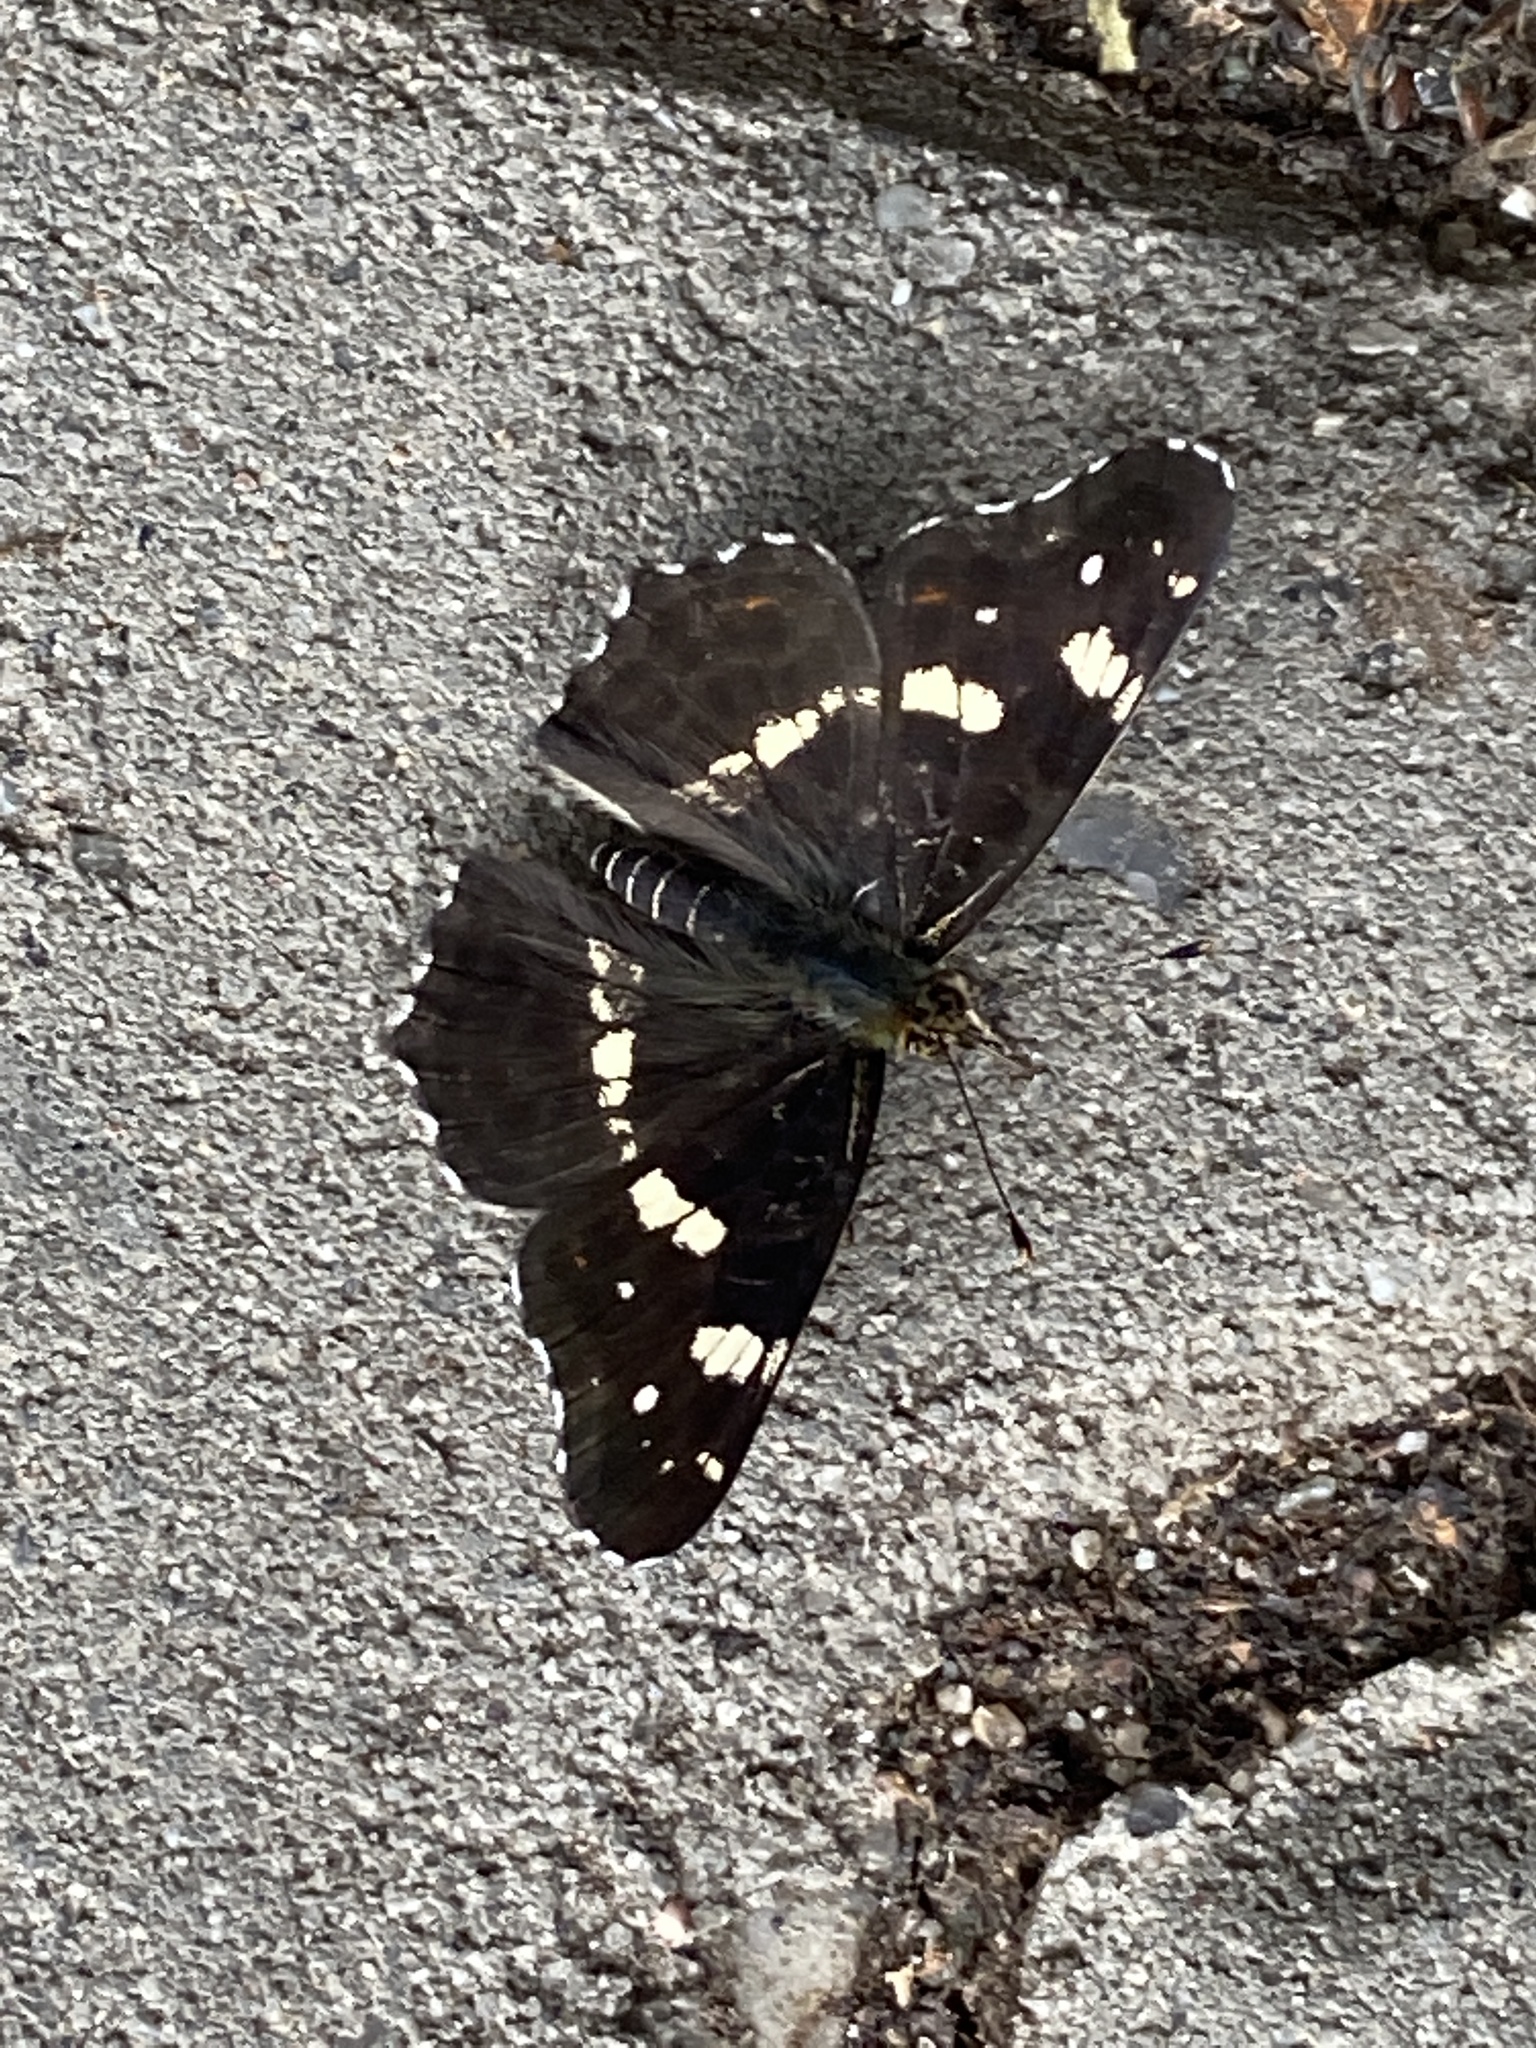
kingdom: Animalia
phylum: Arthropoda
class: Insecta
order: Lepidoptera
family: Nymphalidae
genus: Araschnia
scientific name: Araschnia levana
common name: Map butterfly
